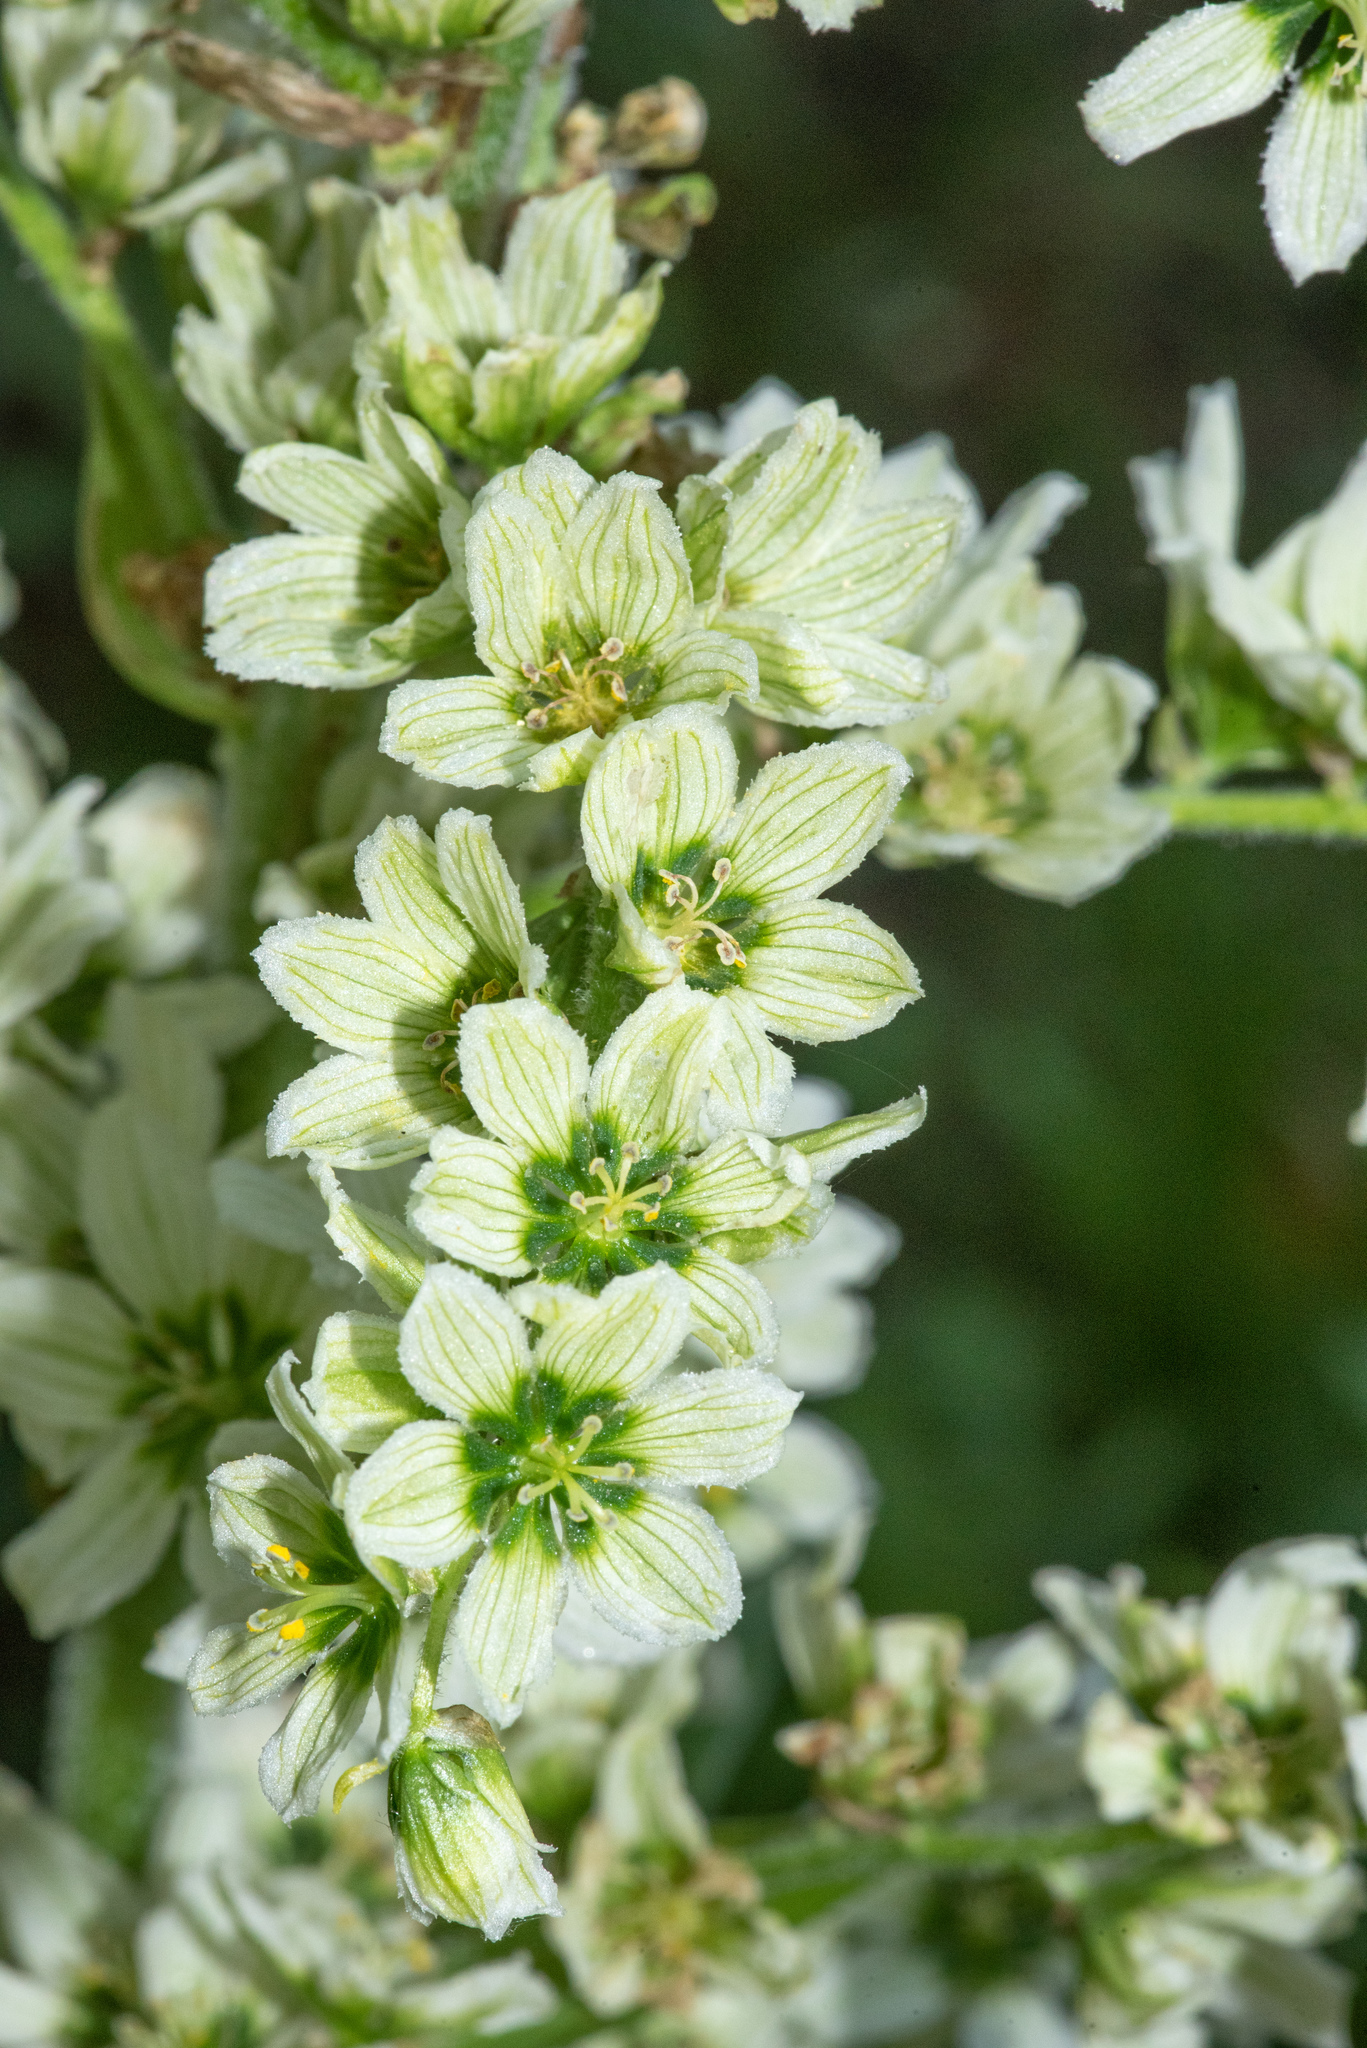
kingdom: Plantae
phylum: Tracheophyta
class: Liliopsida
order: Liliales
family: Melanthiaceae
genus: Veratrum
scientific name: Veratrum californicum
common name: California veratrum
